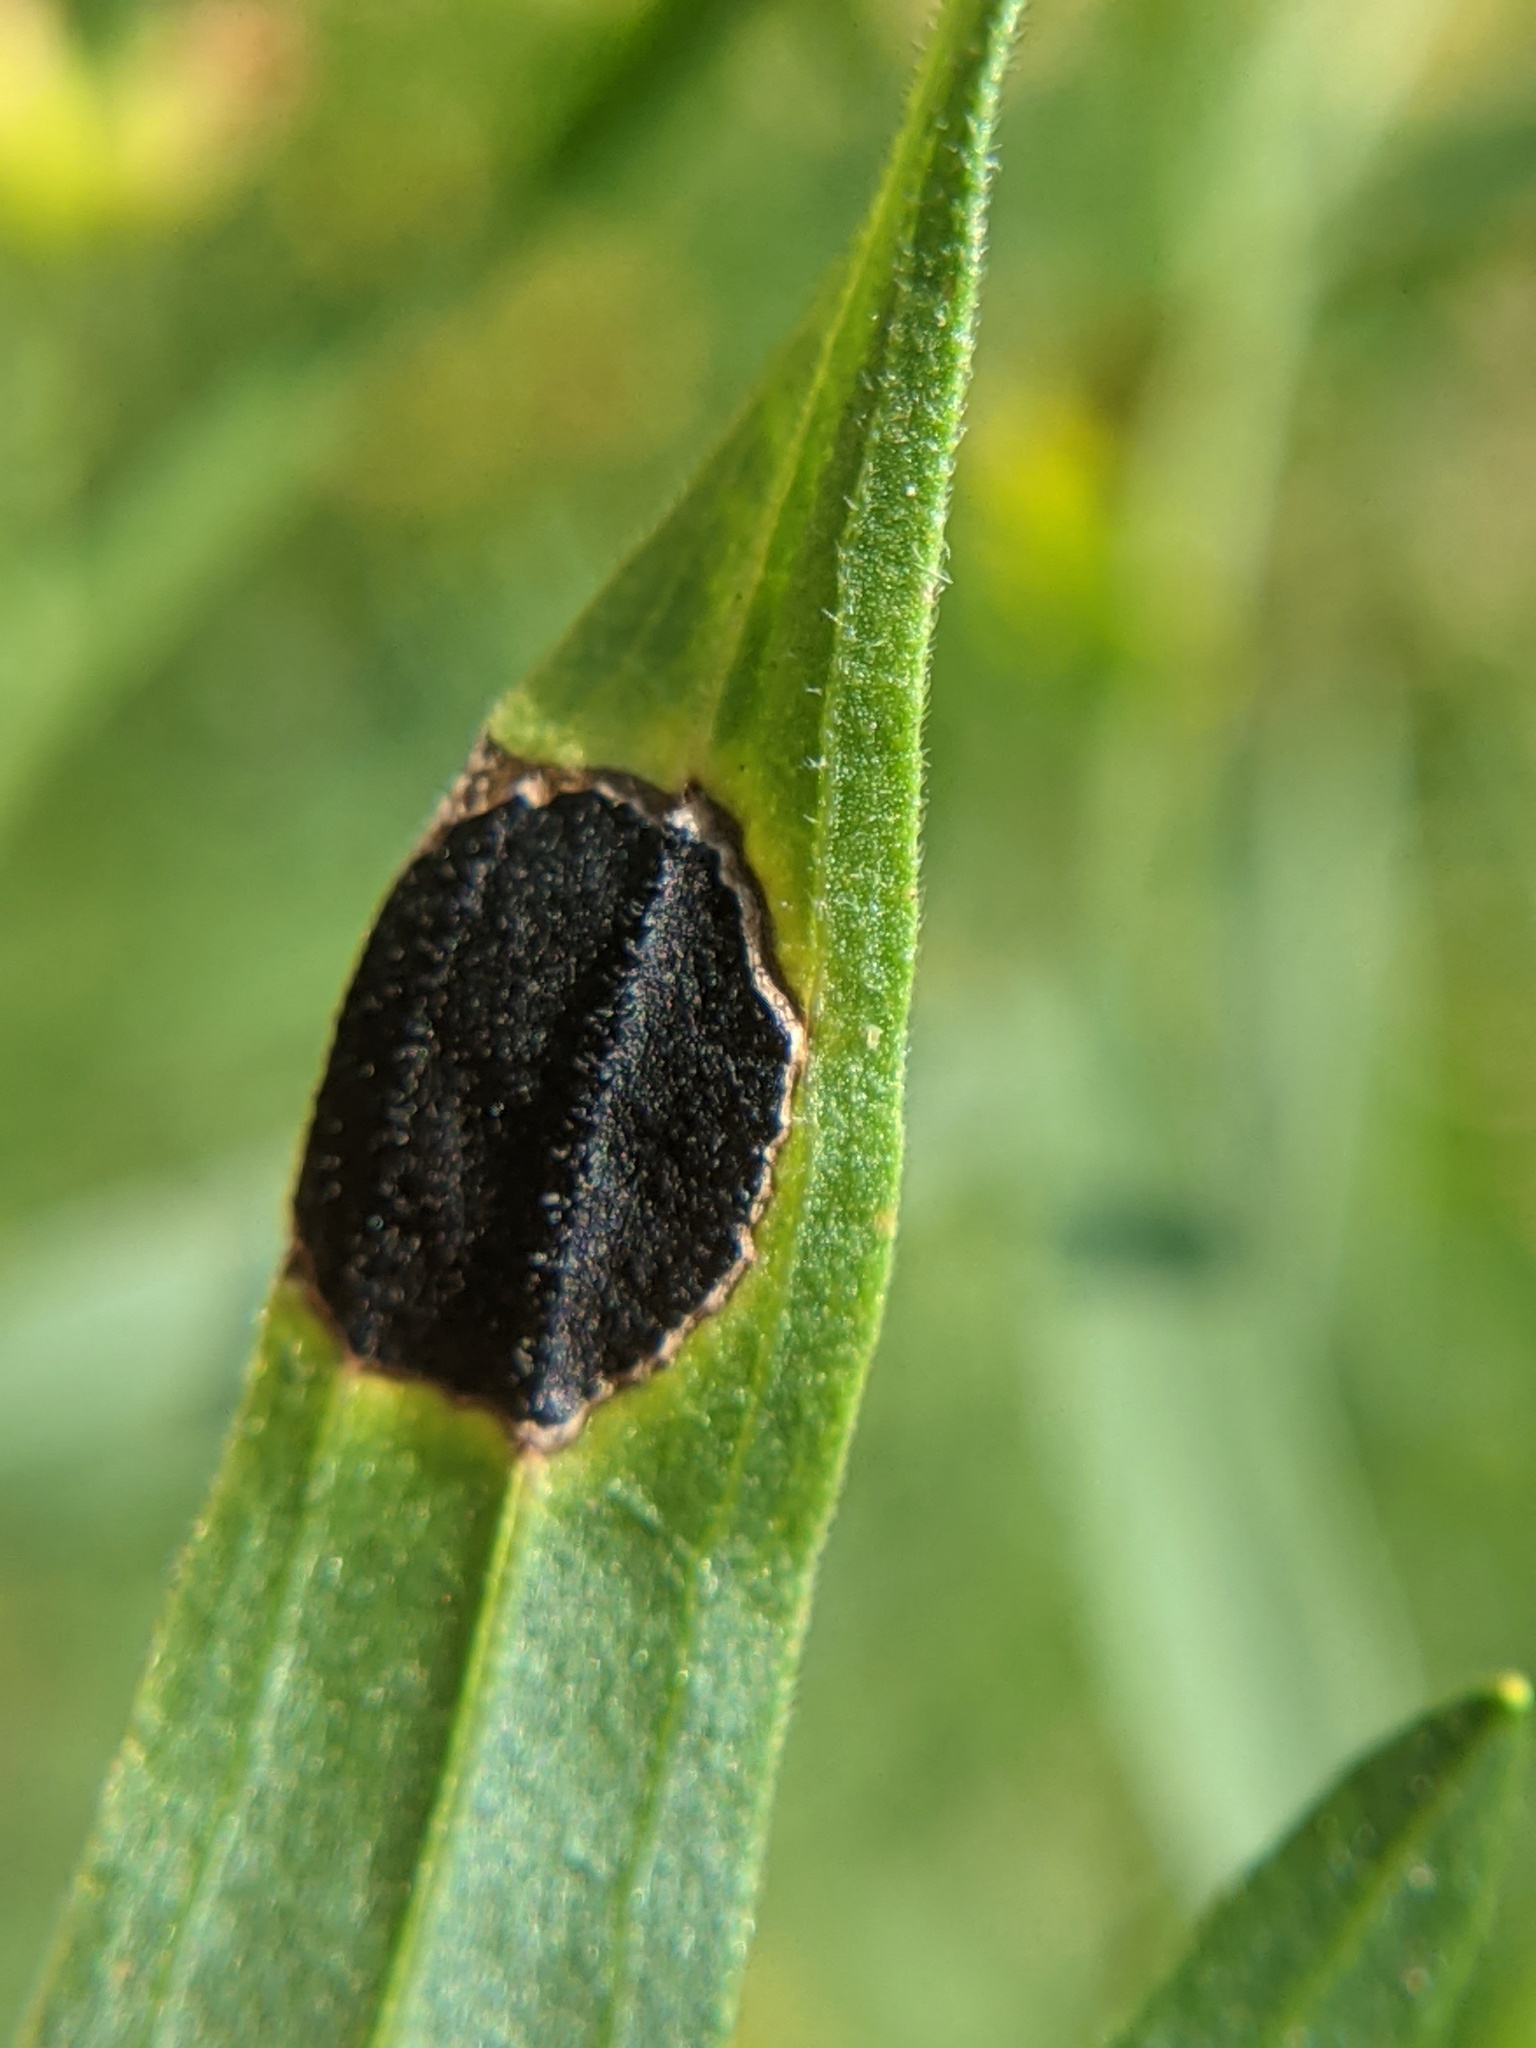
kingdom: Animalia
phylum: Arthropoda
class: Insecta
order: Diptera
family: Cecidomyiidae
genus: Asteromyia
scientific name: Asteromyia euthamiae
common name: Euthamia leaf gall midge
